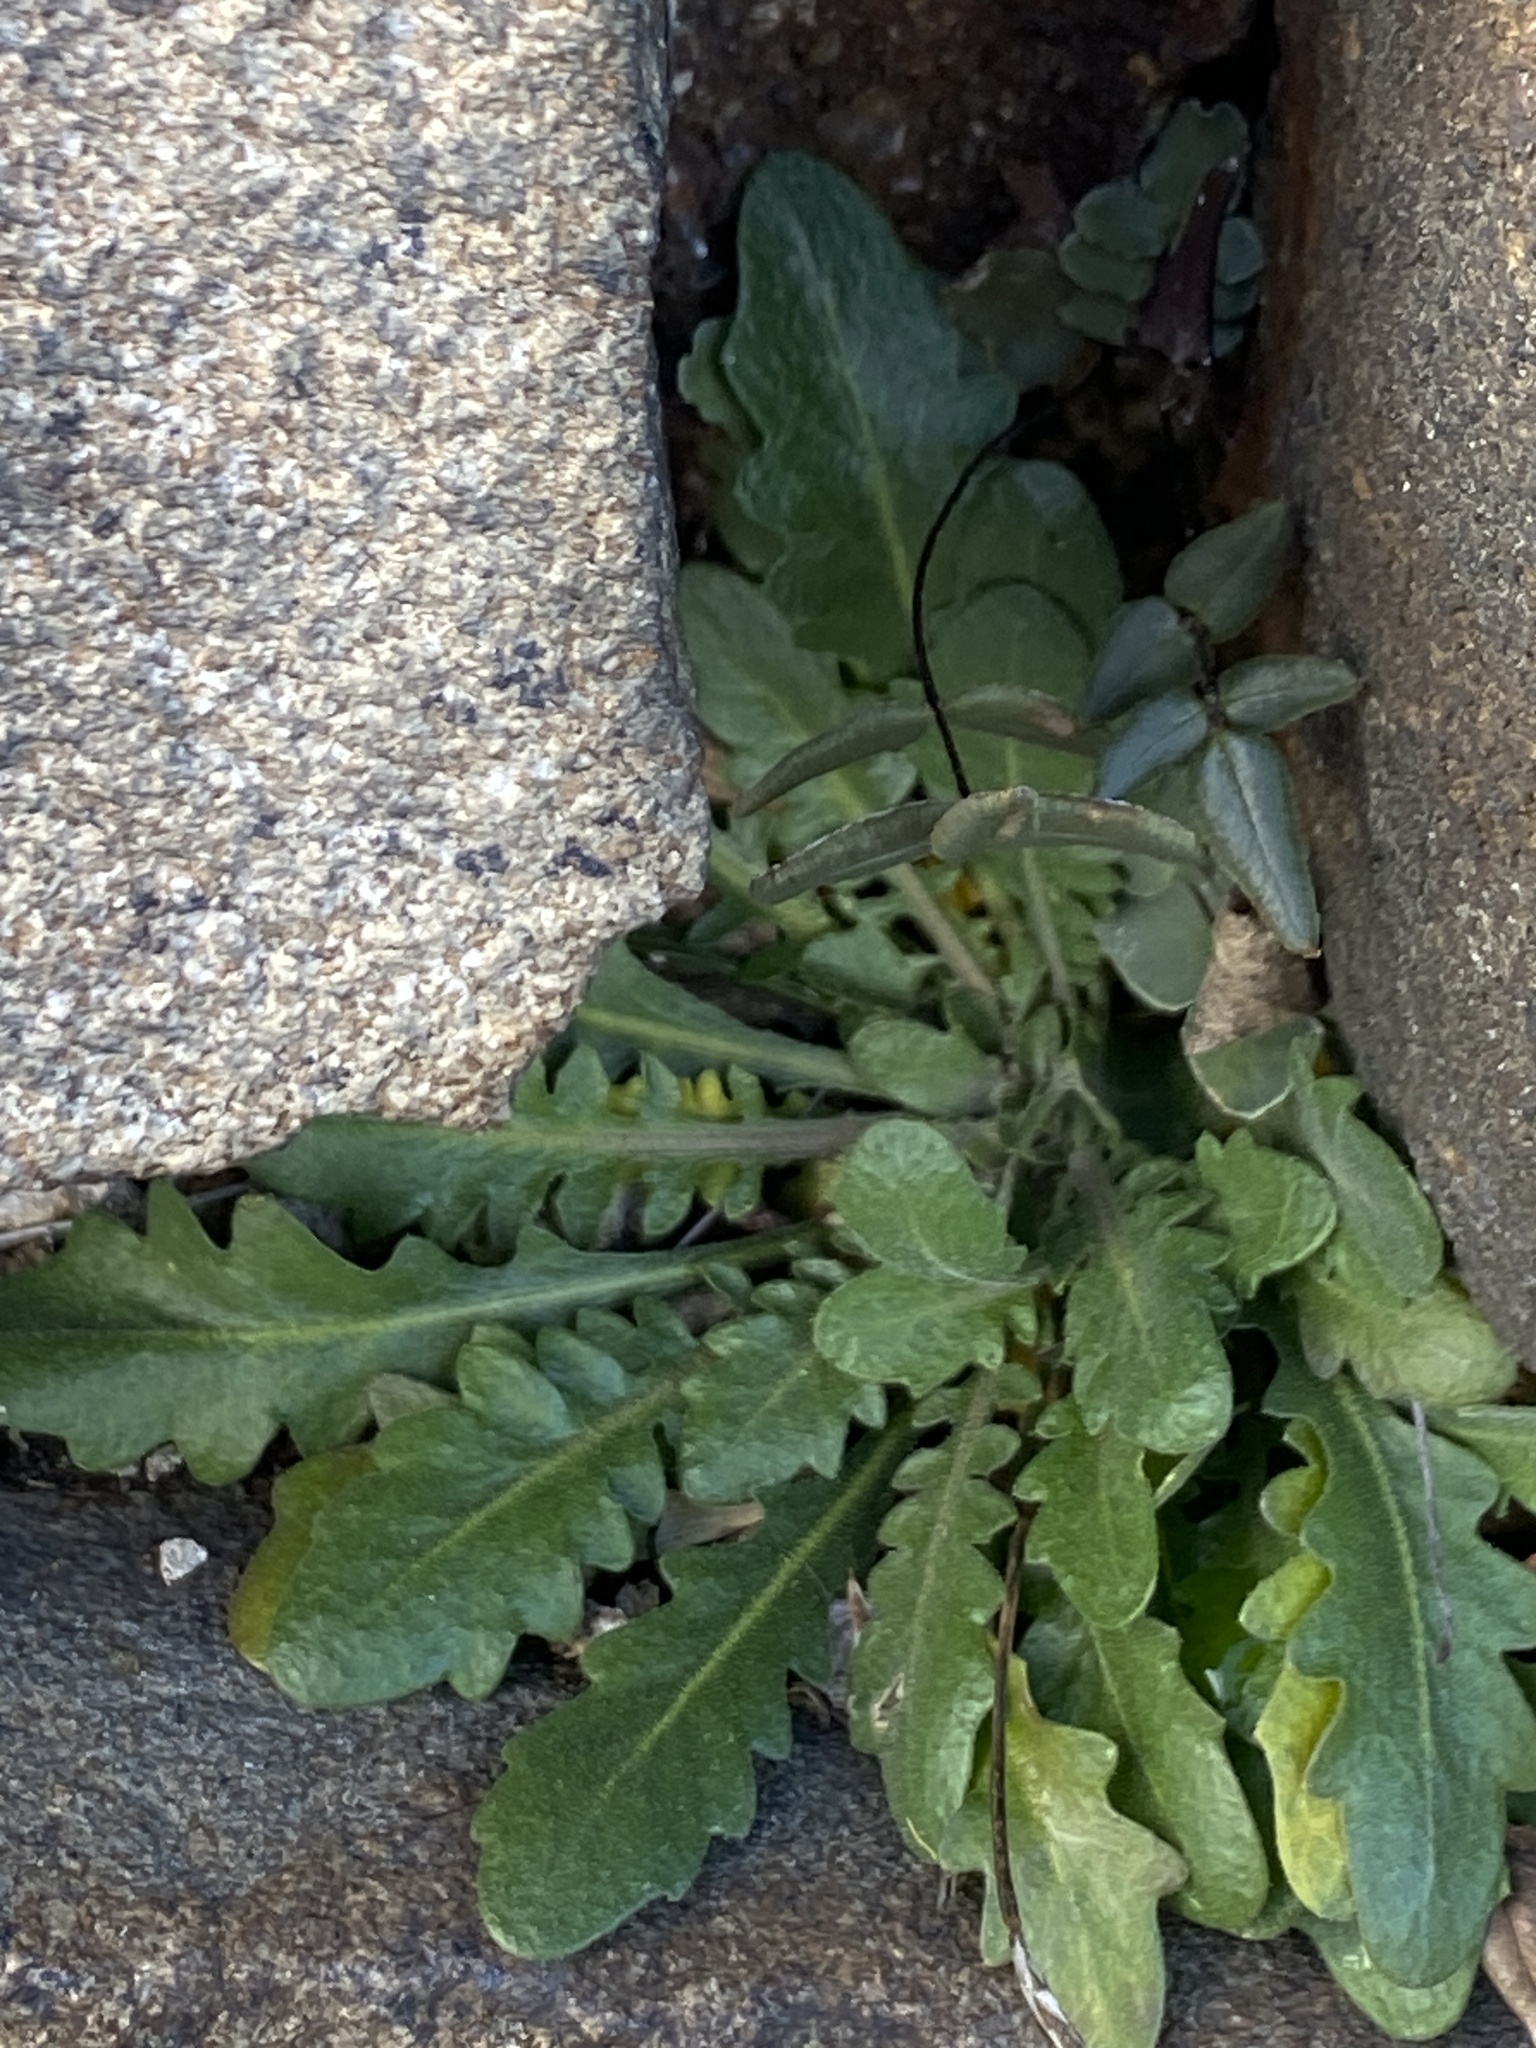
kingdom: Plantae
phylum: Tracheophyta
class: Magnoliopsida
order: Brassicales
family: Brassicaceae
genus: Arabidopsis
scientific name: Arabidopsis lyrata
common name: Lyrate rockcress
